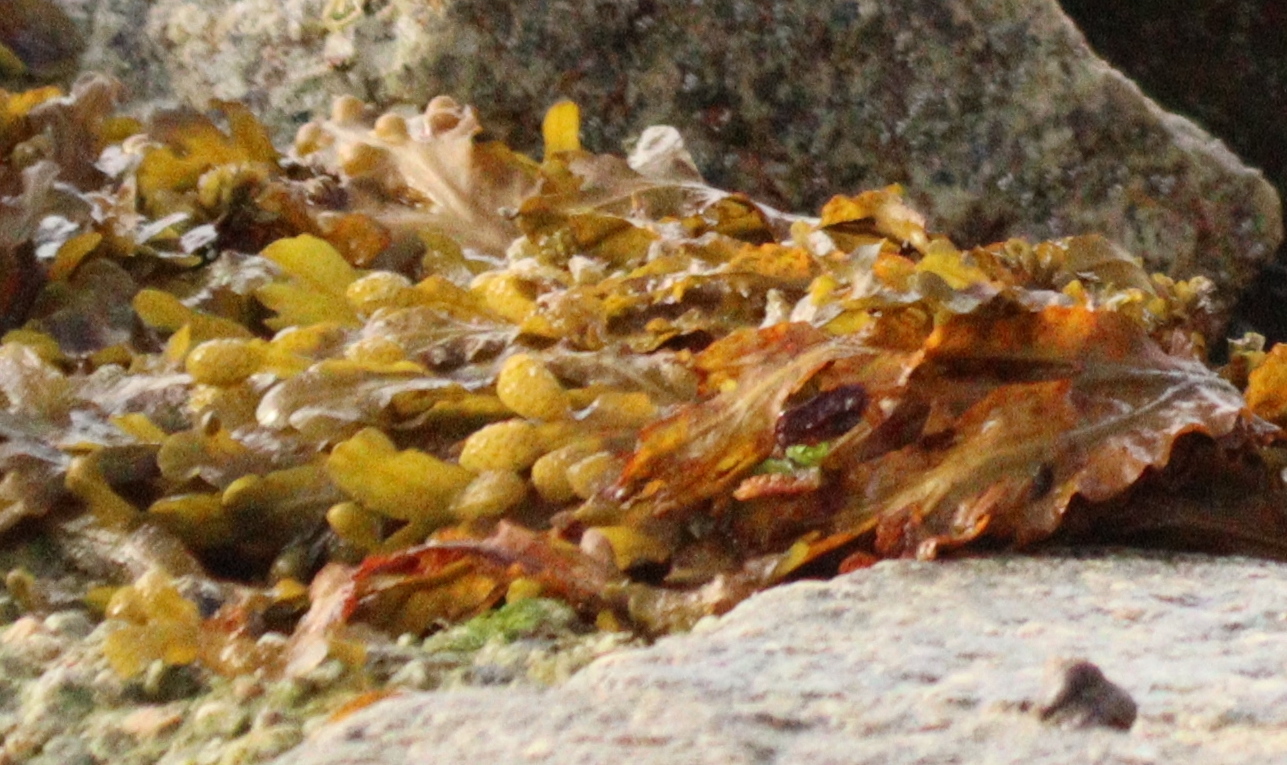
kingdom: Chromista
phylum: Ochrophyta
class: Phaeophyceae
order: Fucales
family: Fucaceae
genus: Fucus
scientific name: Fucus spiralis
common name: Spiral wrack
